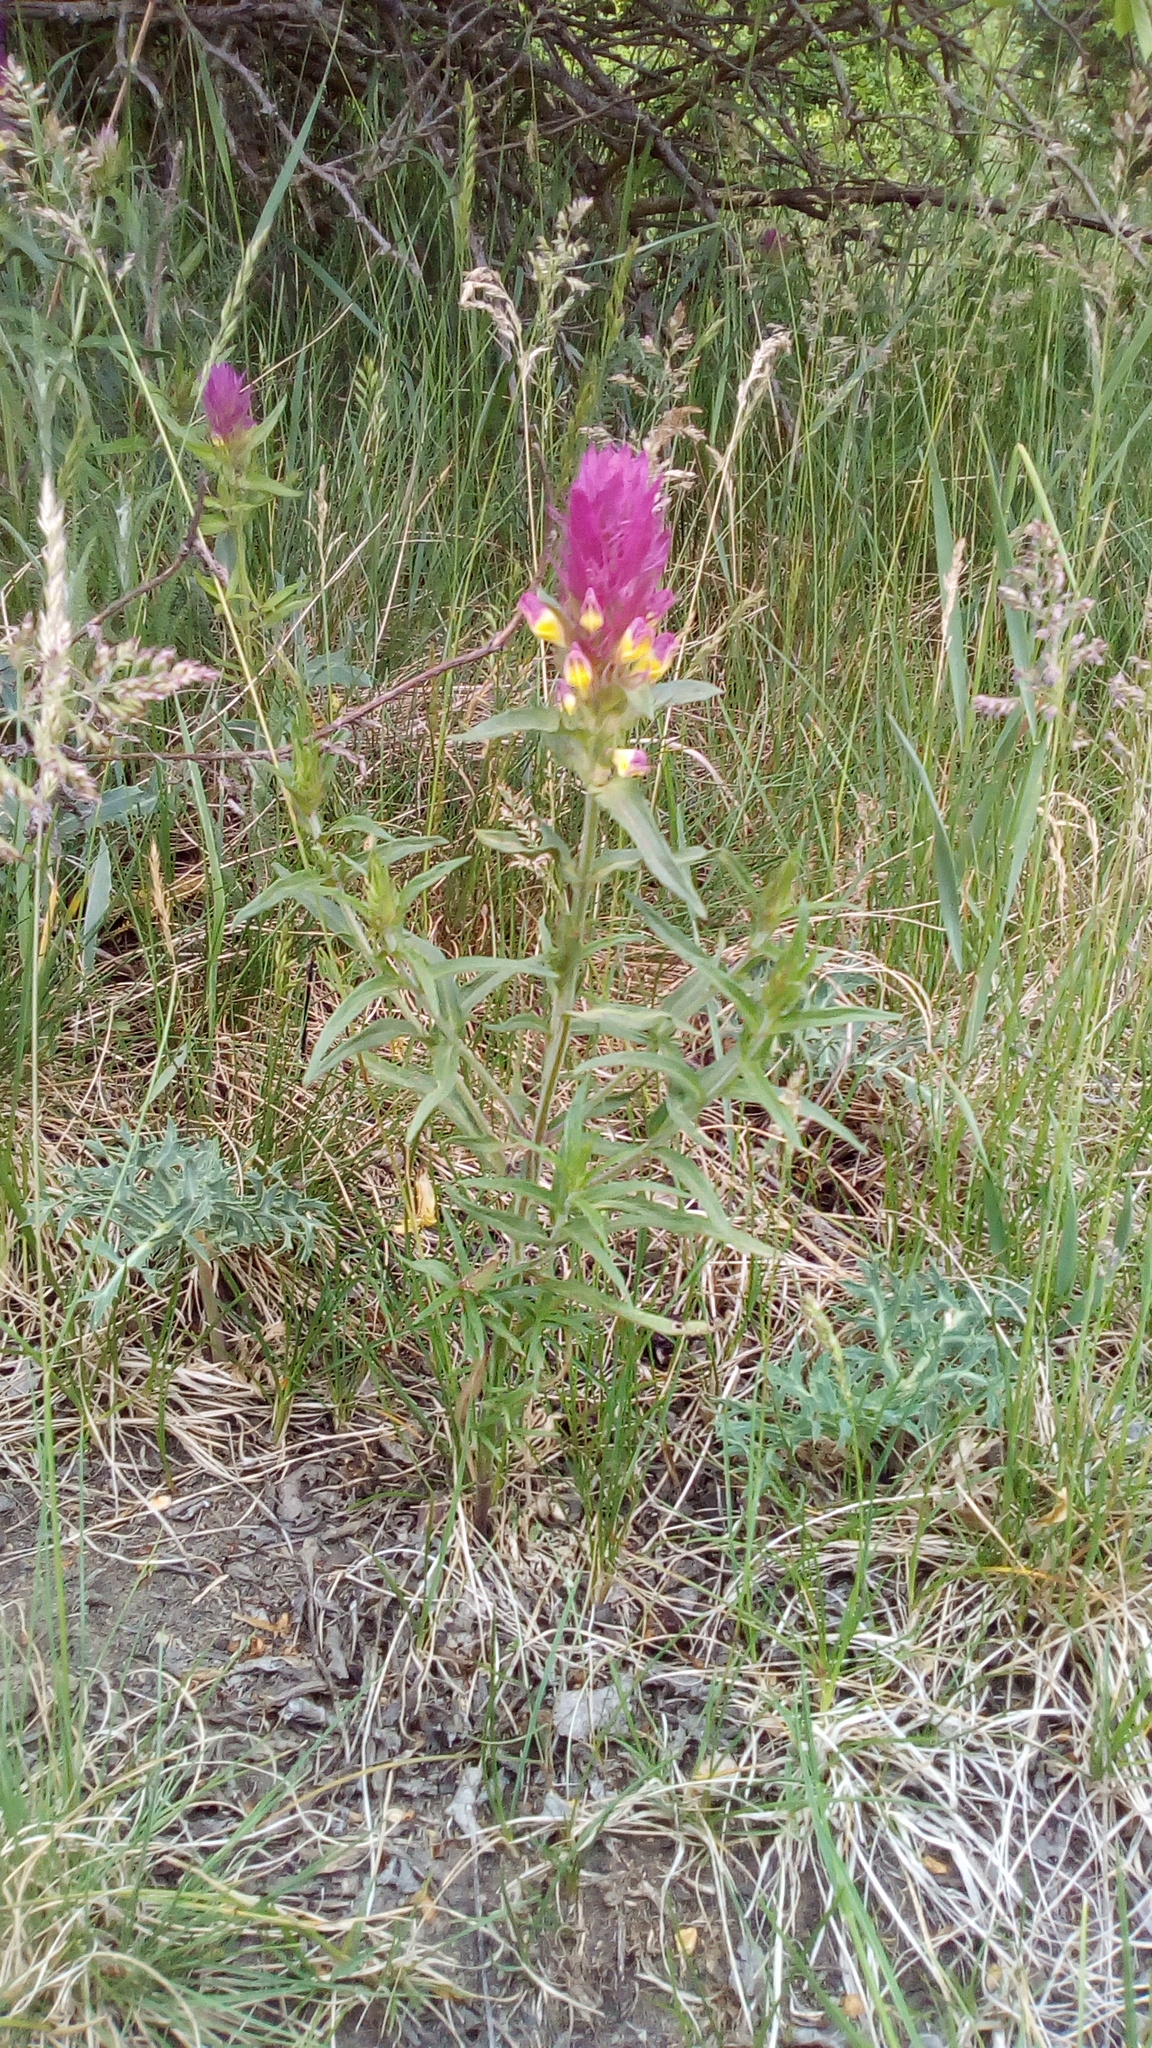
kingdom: Plantae
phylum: Tracheophyta
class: Magnoliopsida
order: Lamiales
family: Orobanchaceae
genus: Melampyrum
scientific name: Melampyrum arvense
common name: Field cow-wheat
